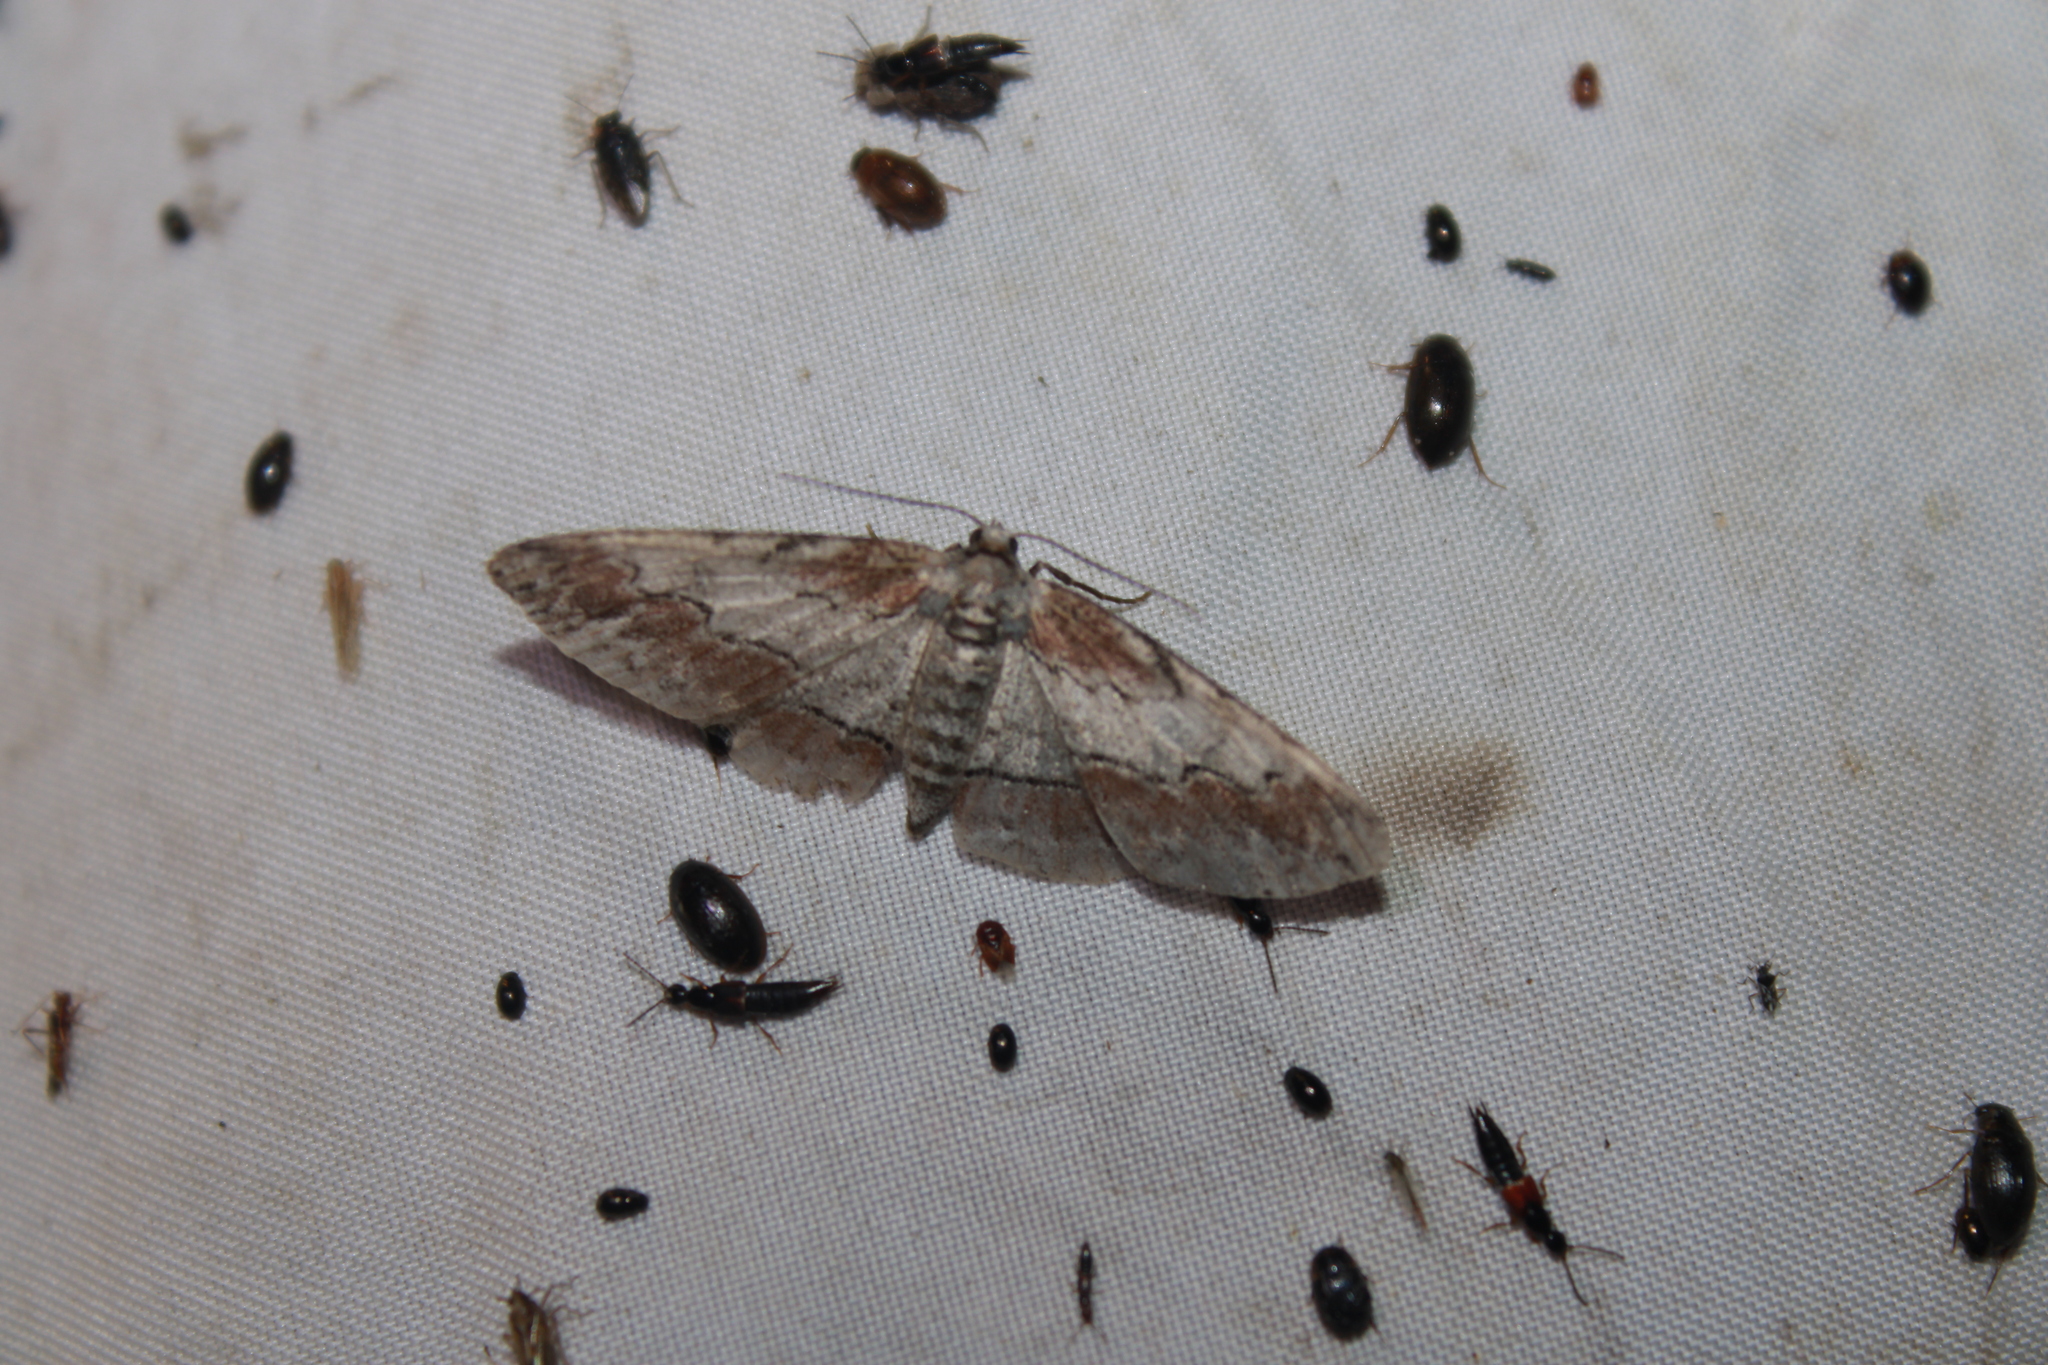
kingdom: Animalia
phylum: Arthropoda
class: Insecta
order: Lepidoptera
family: Geometridae
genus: Iridopsis
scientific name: Iridopsis vellivolata
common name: Large purplish gray
